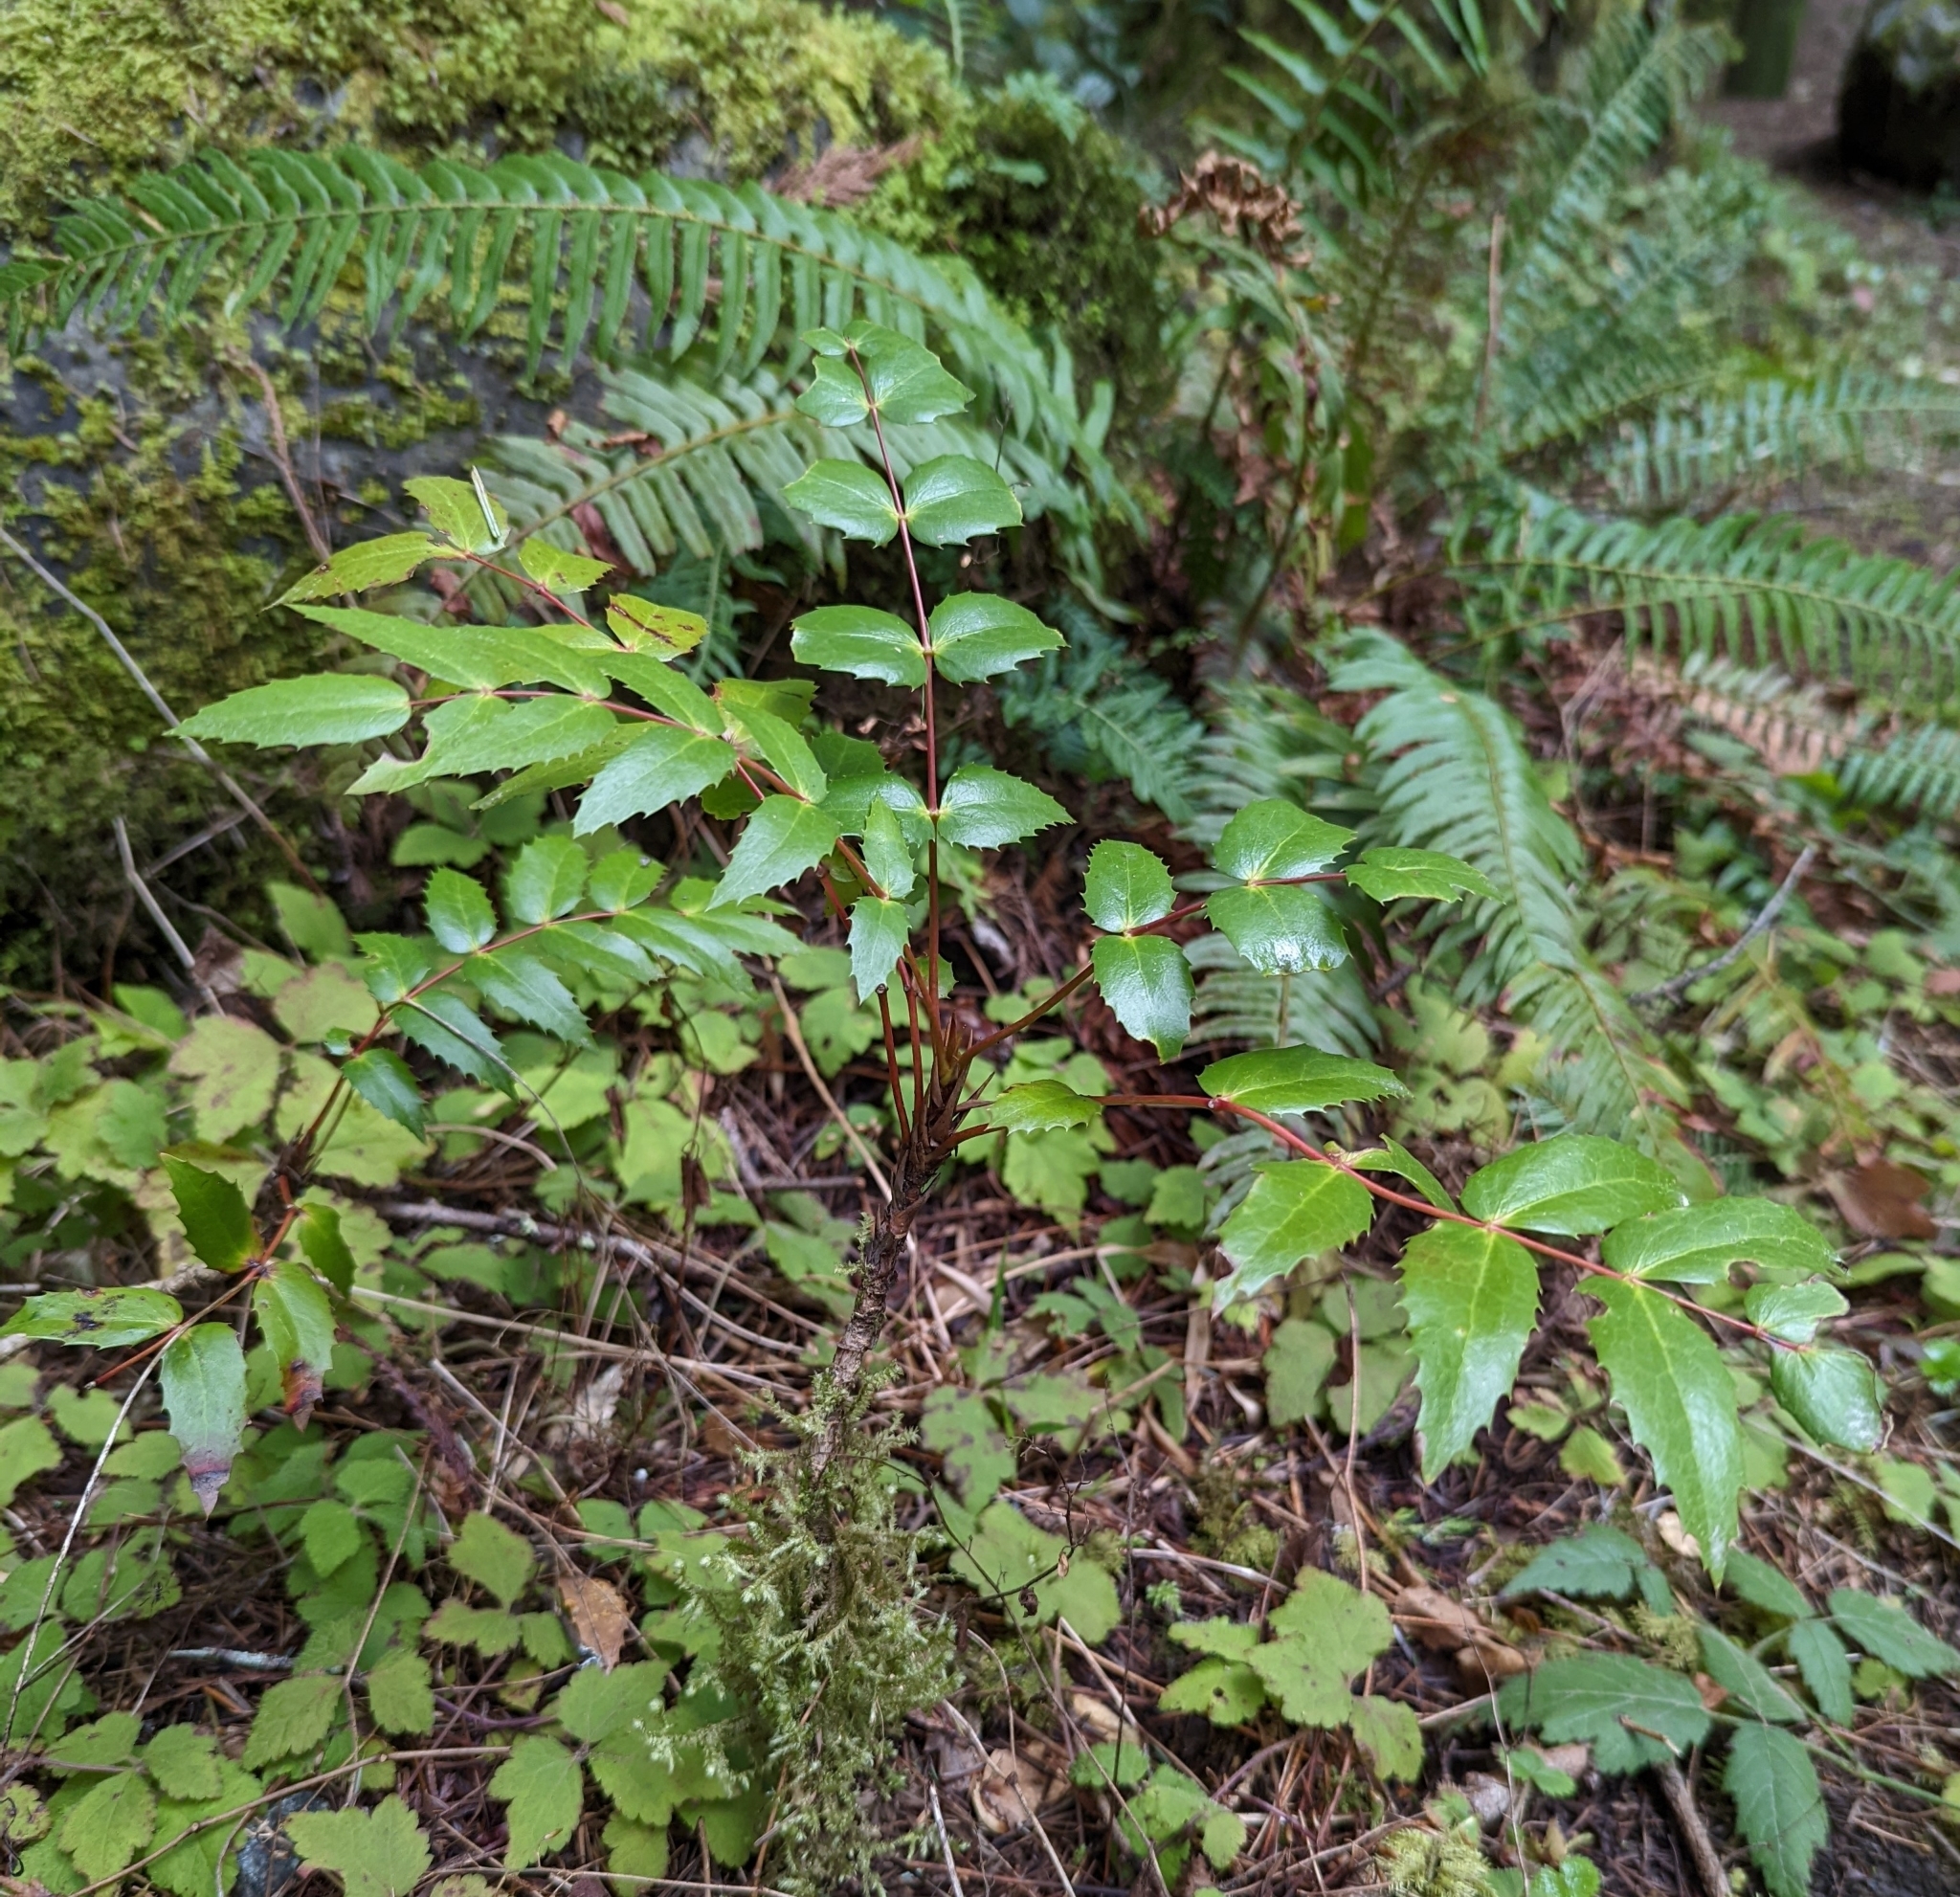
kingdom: Plantae
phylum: Tracheophyta
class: Magnoliopsida
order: Ranunculales
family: Berberidaceae
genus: Mahonia
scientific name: Mahonia nervosa
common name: Cascade oregon-grape
